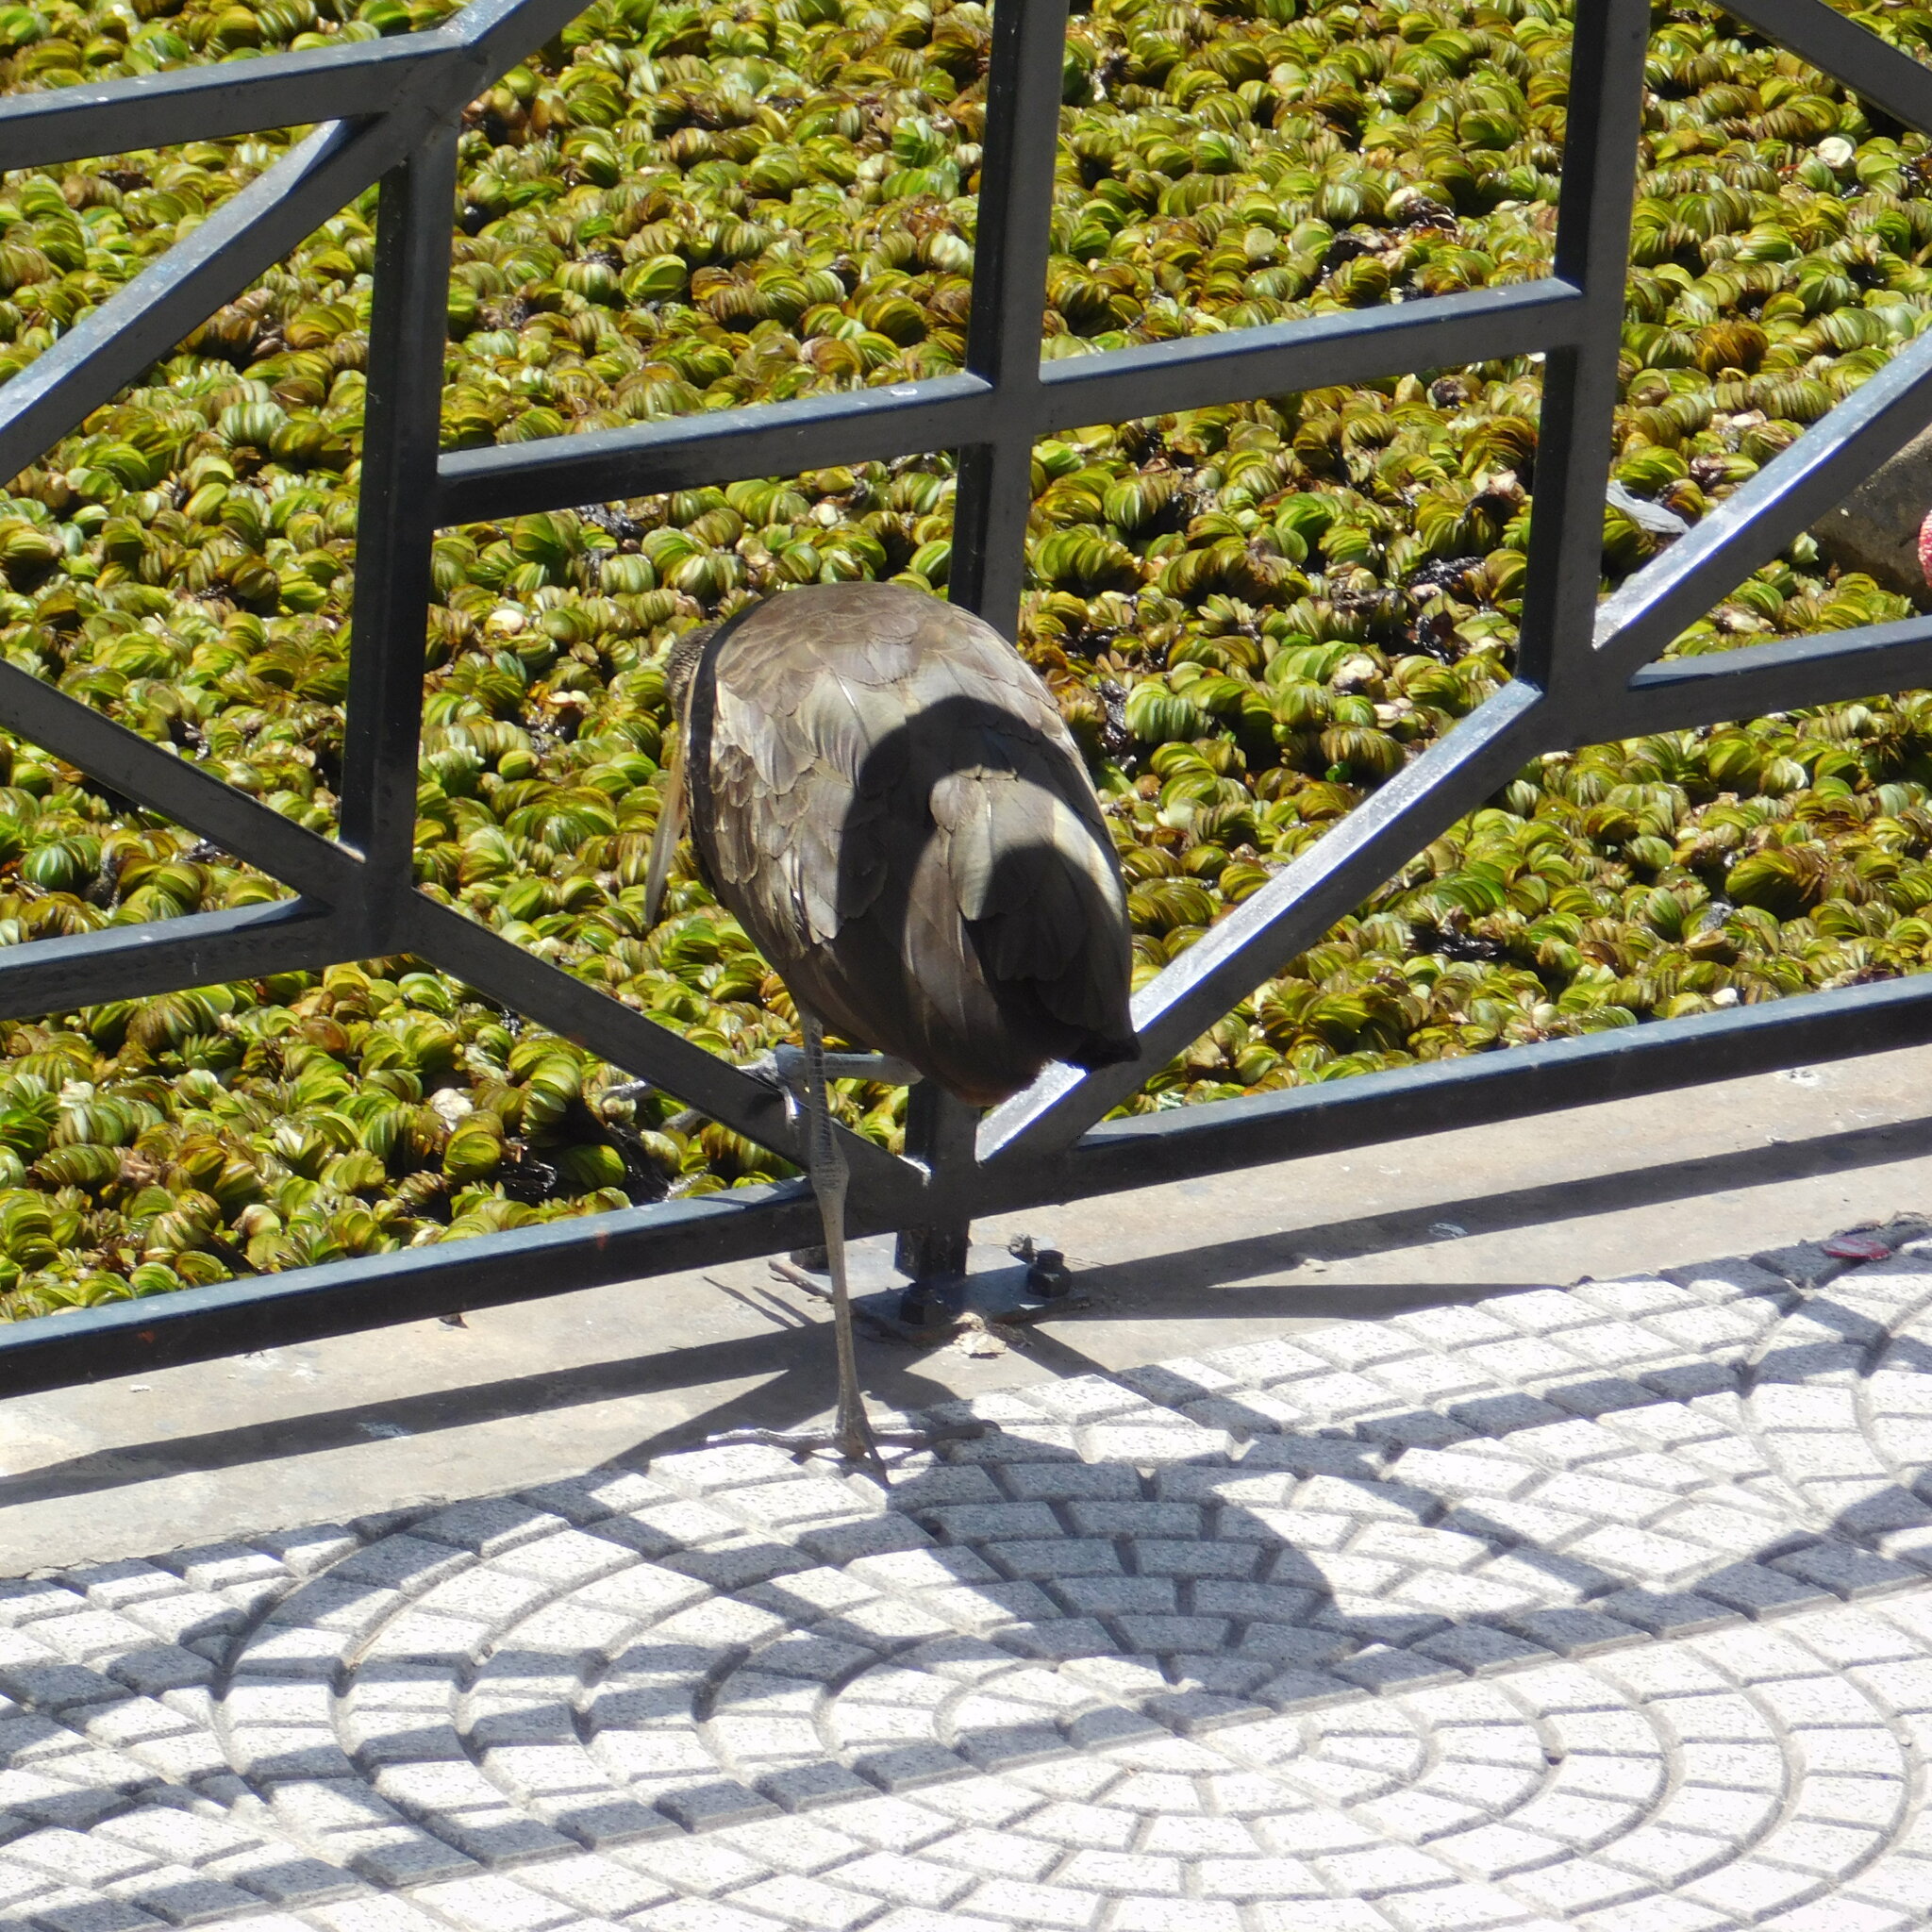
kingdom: Animalia
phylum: Chordata
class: Aves
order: Gruiformes
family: Aramidae
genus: Aramus
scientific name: Aramus guarauna
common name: Limpkin
